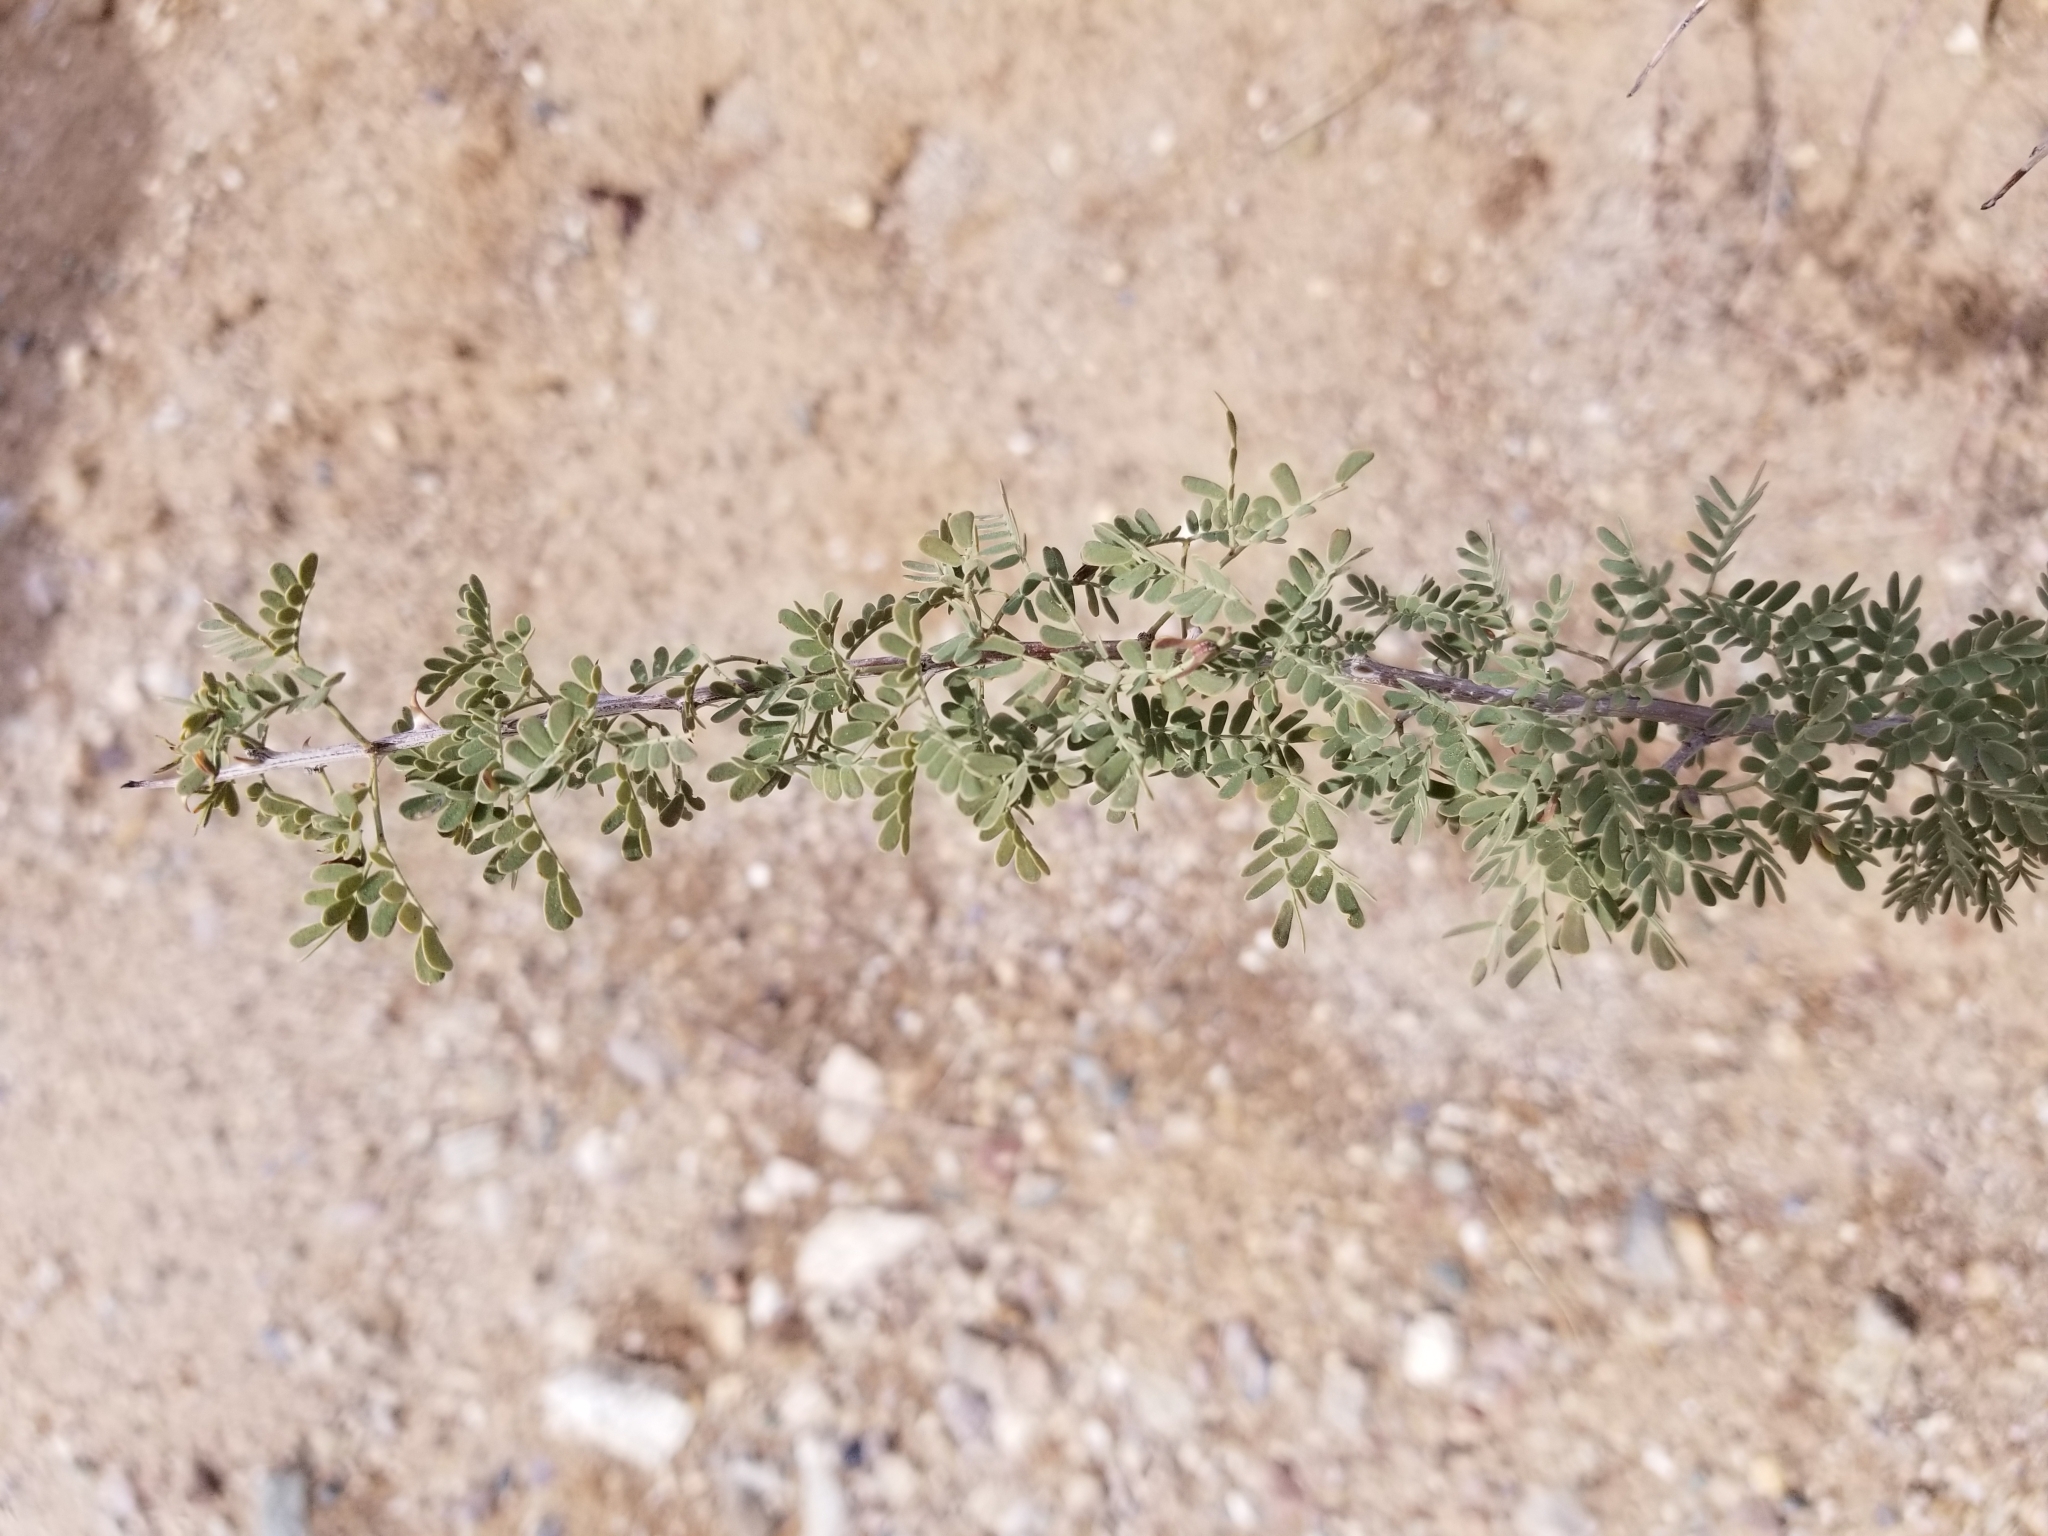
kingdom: Plantae
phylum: Tracheophyta
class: Magnoliopsida
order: Fabales
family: Fabaceae
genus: Senegalia
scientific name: Senegalia greggii
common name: Texas-mimosa
